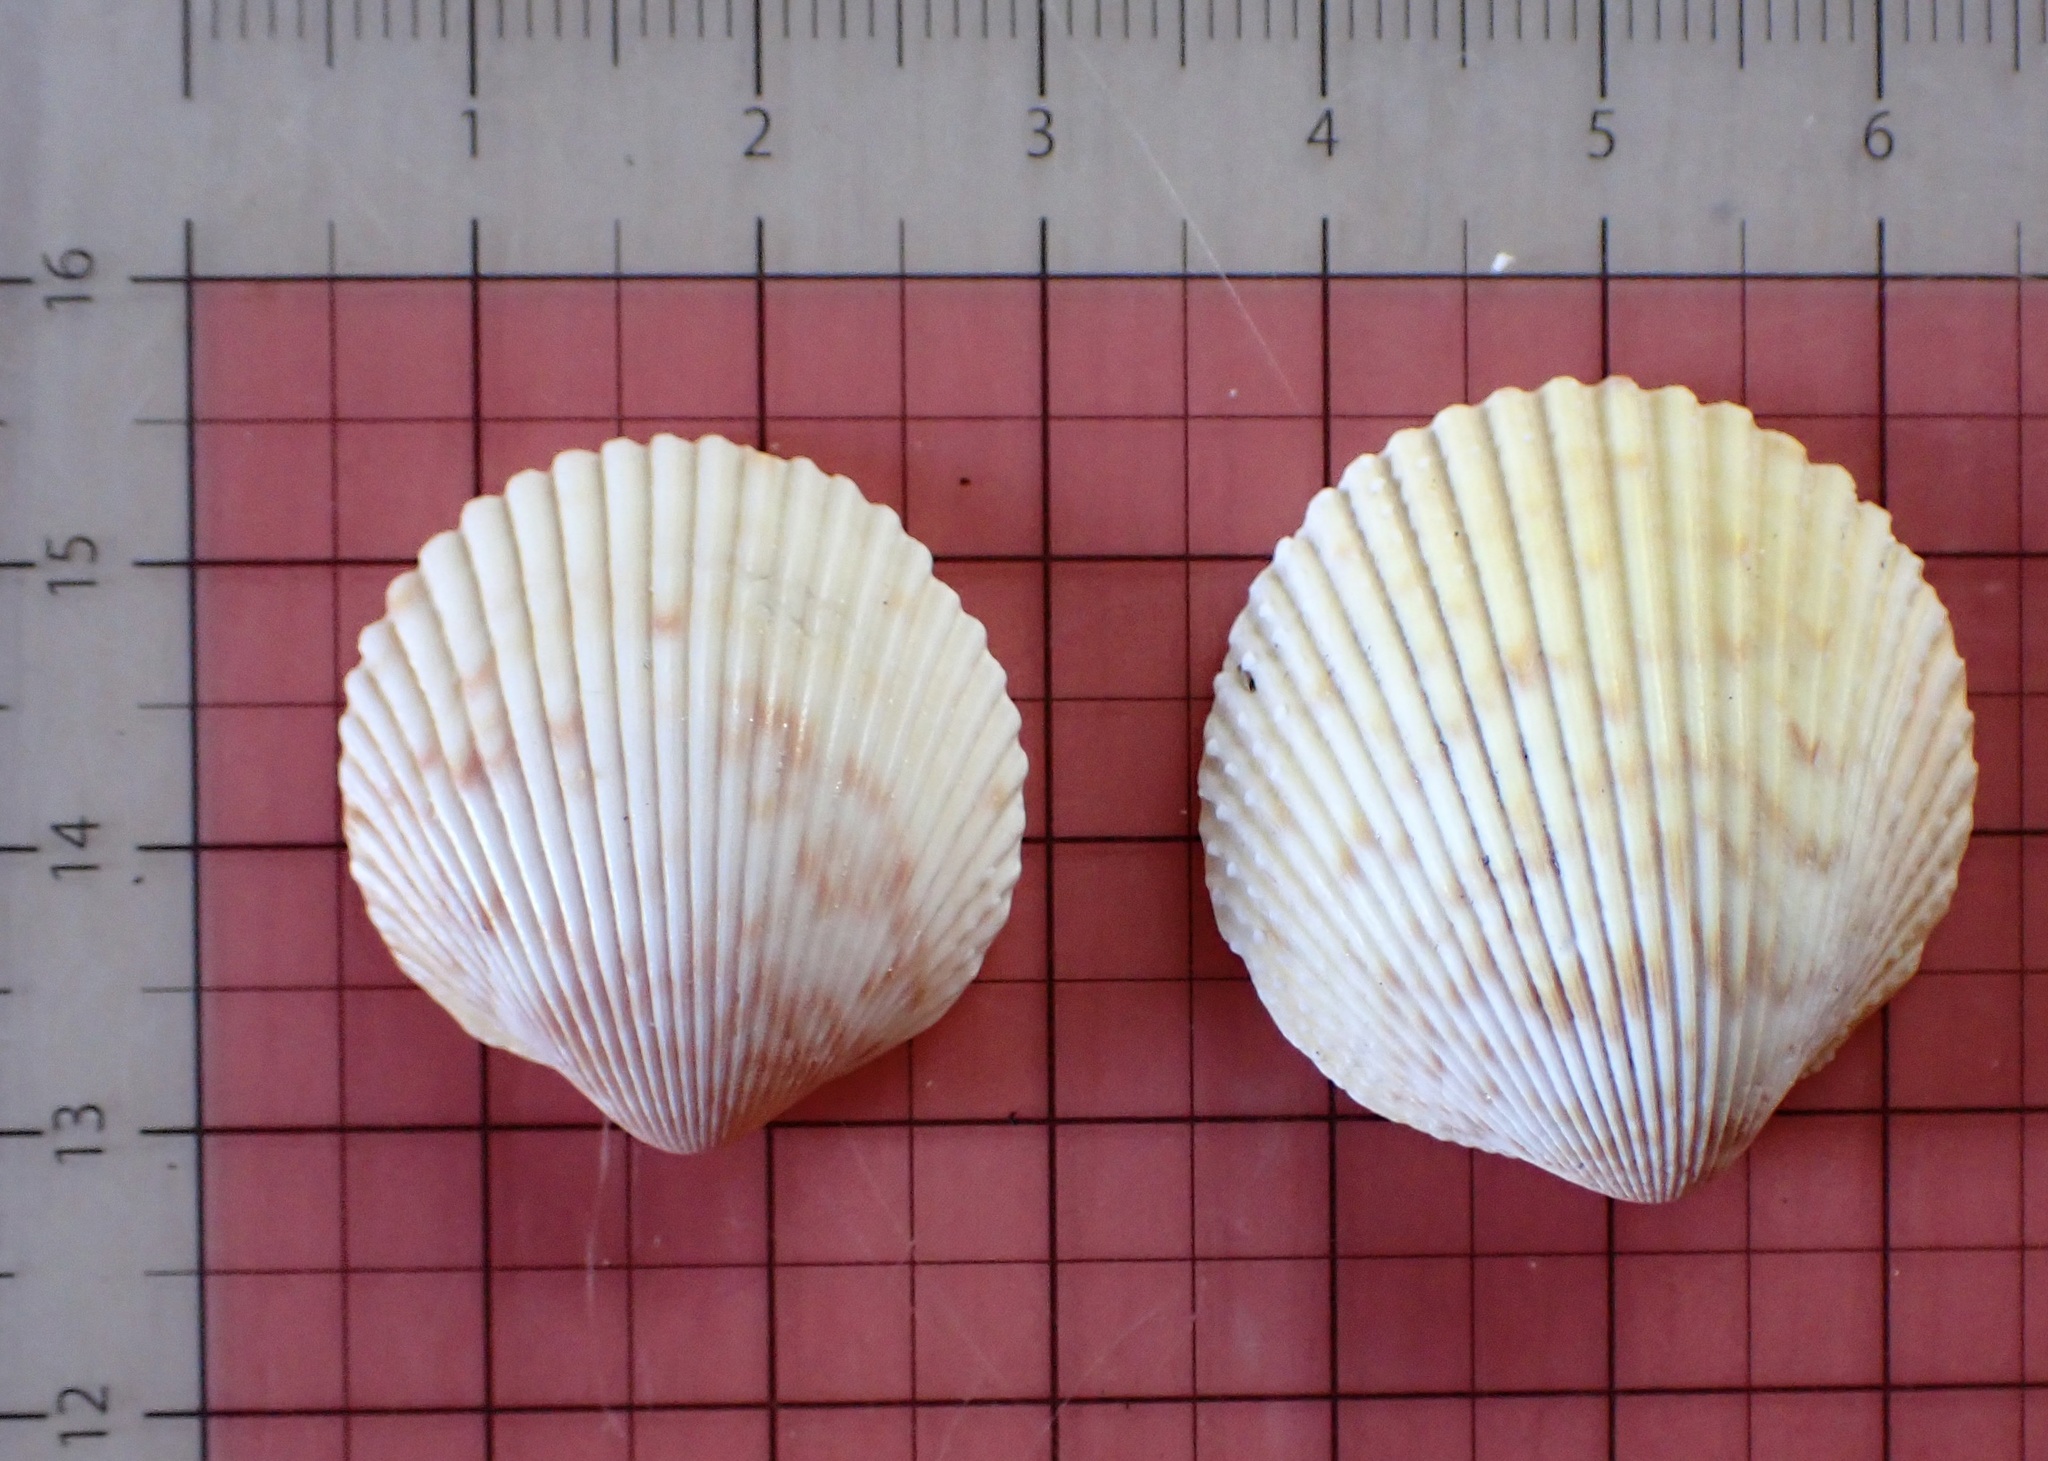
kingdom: Animalia
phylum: Mollusca
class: Bivalvia
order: Cardiida
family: Cardiidae
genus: Dallocardia
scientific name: Dallocardia muricata
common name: Yellow pricklycockle
